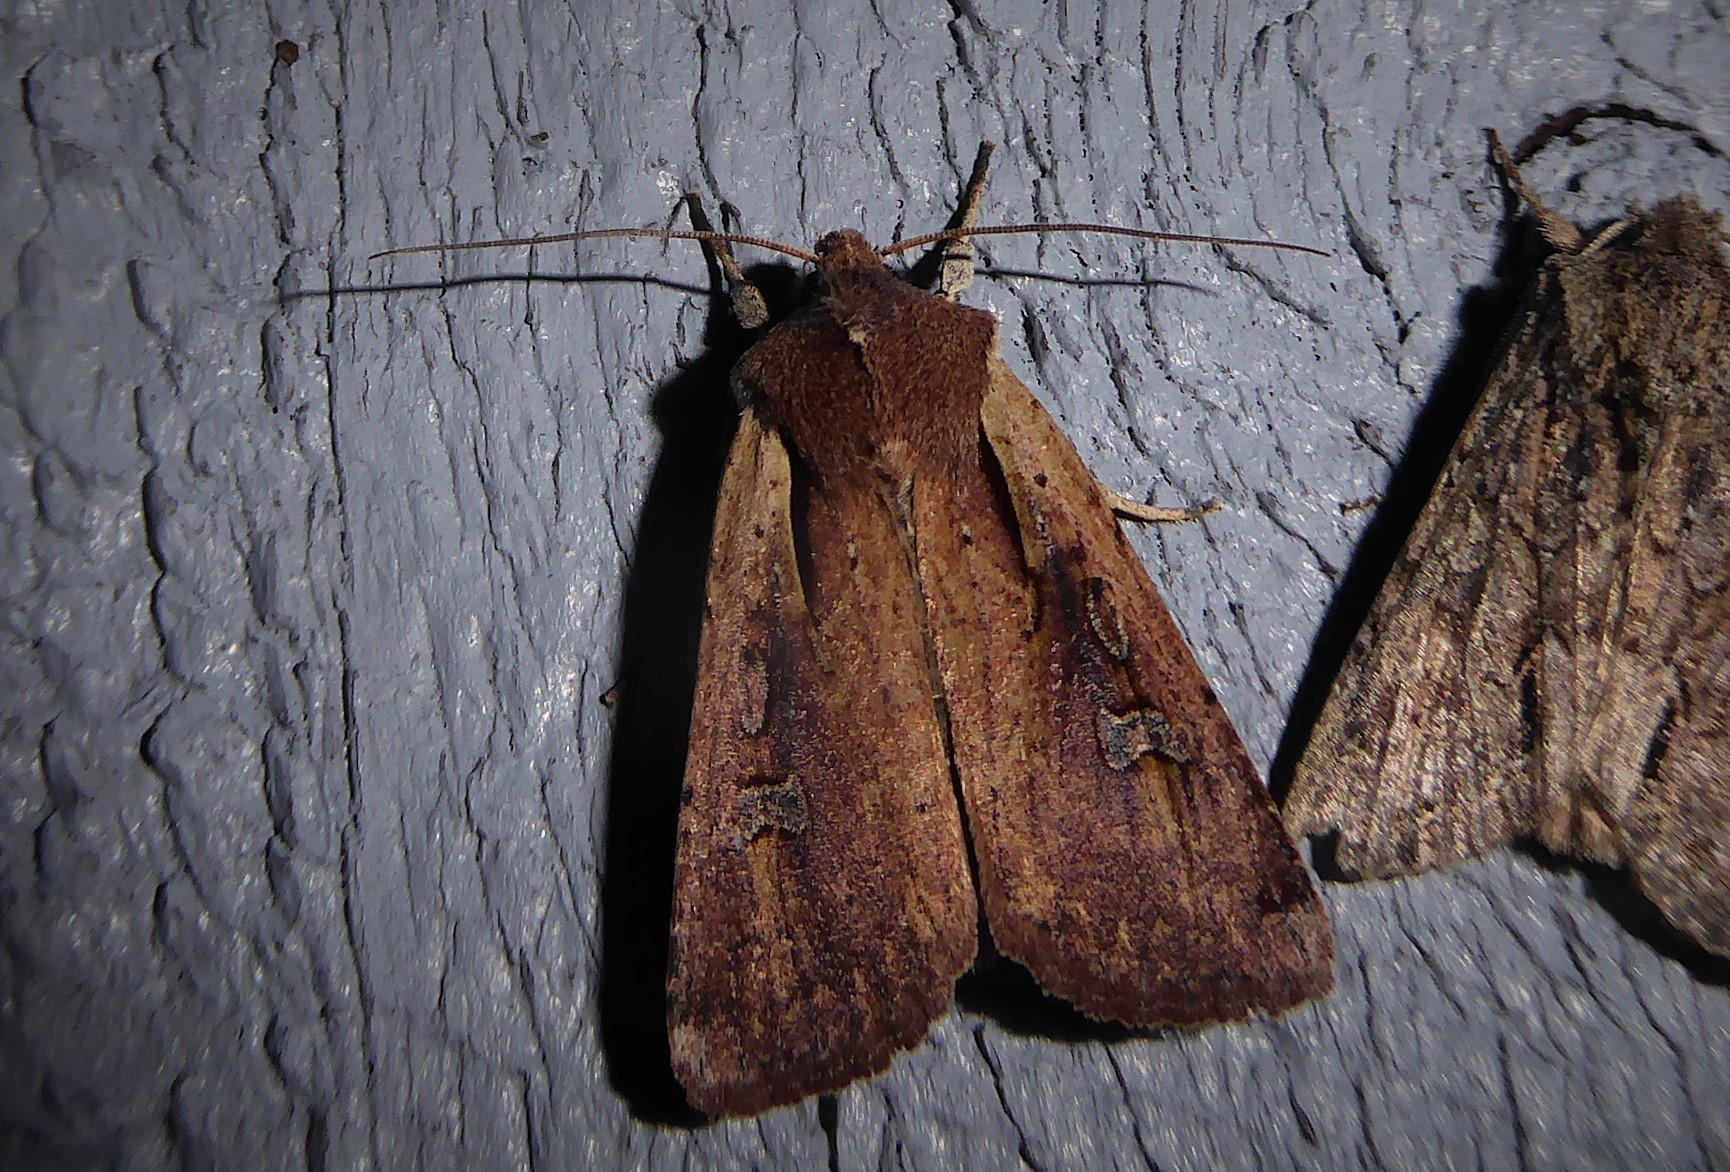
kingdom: Animalia
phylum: Arthropoda
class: Insecta
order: Lepidoptera
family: Noctuidae
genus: Ichneutica
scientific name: Ichneutica atristriga
